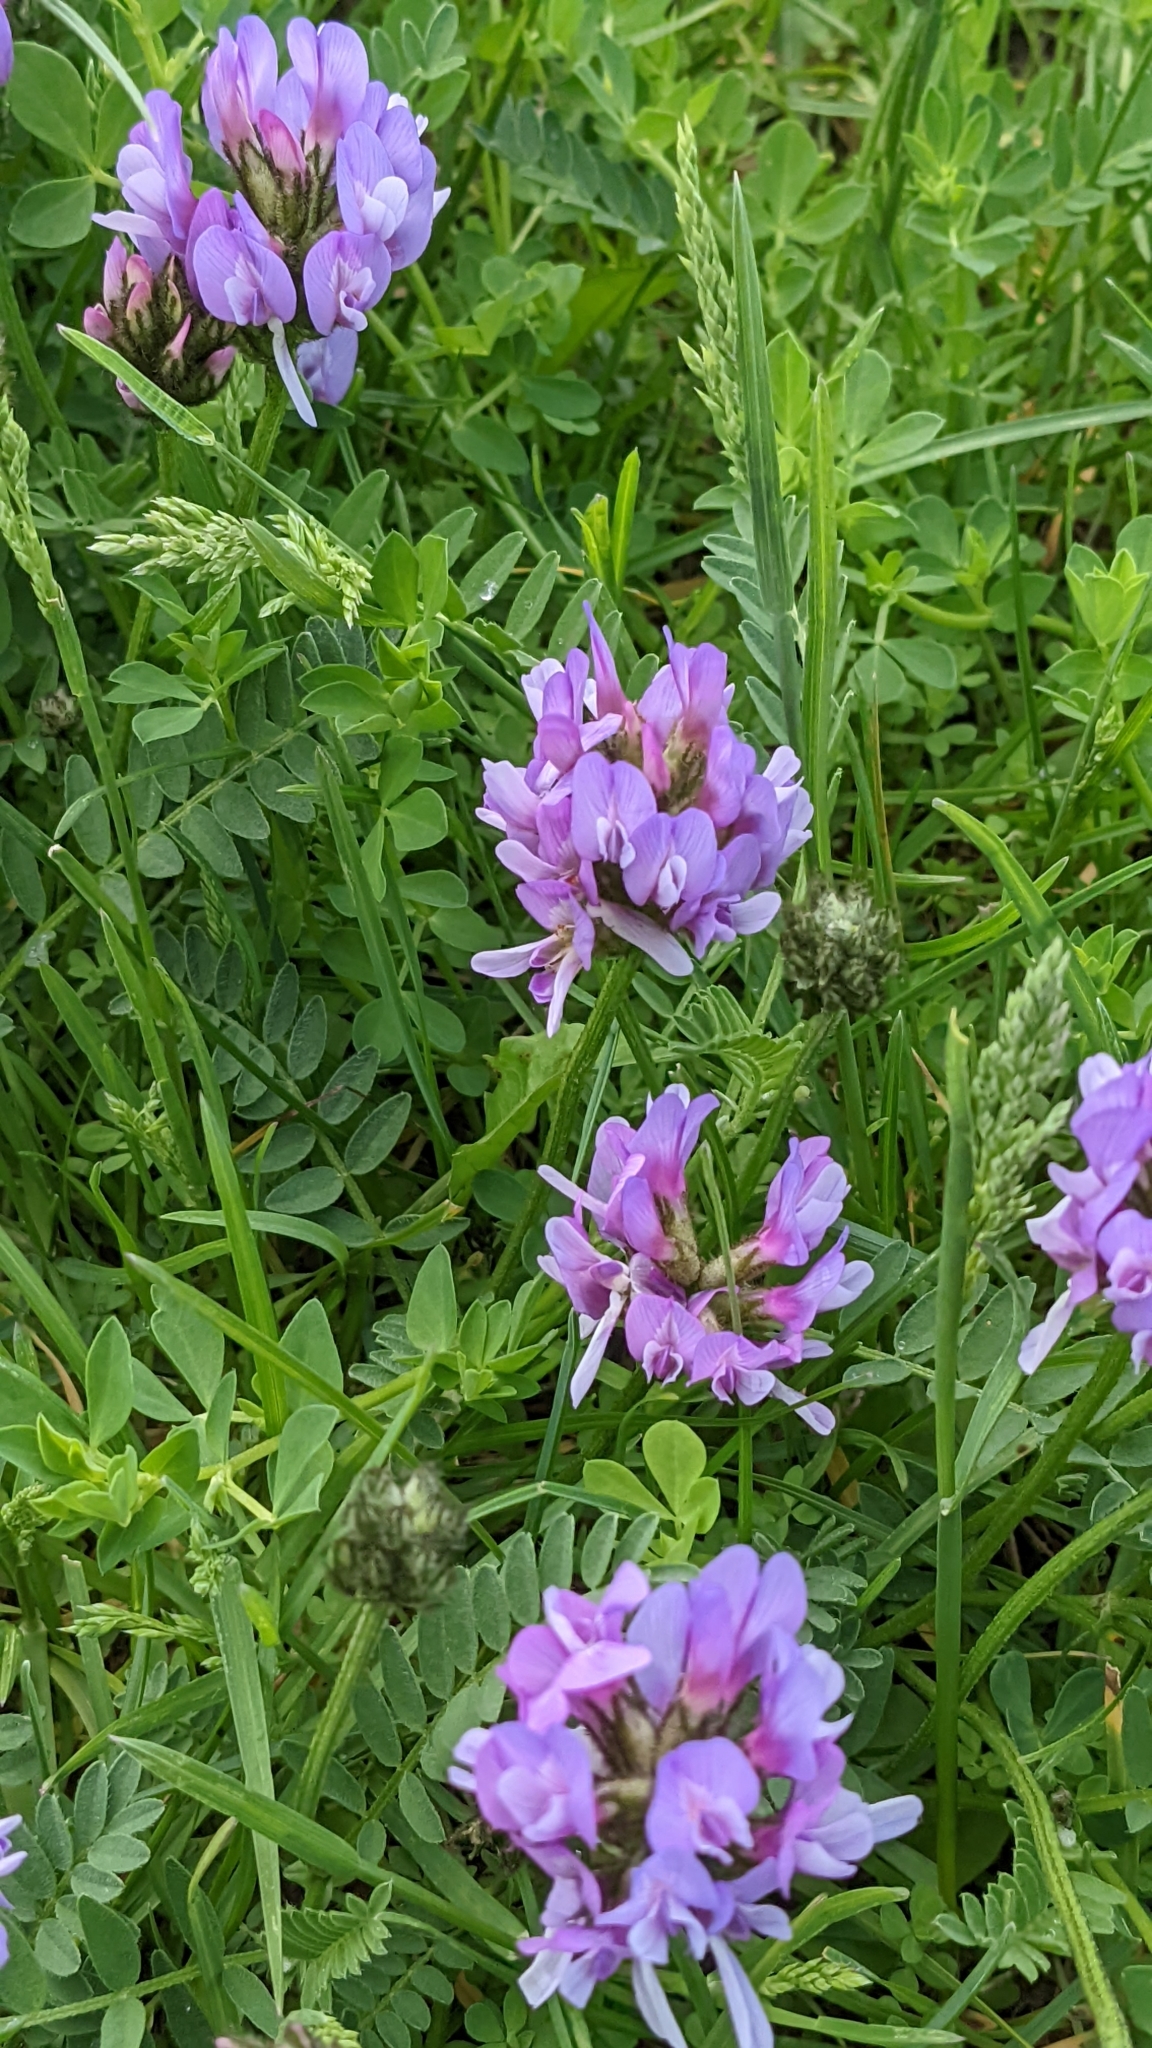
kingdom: Plantae
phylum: Tracheophyta
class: Magnoliopsida
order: Fabales
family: Fabaceae
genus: Astragalus
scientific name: Astragalus agrestis
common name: Field milk-vetch
